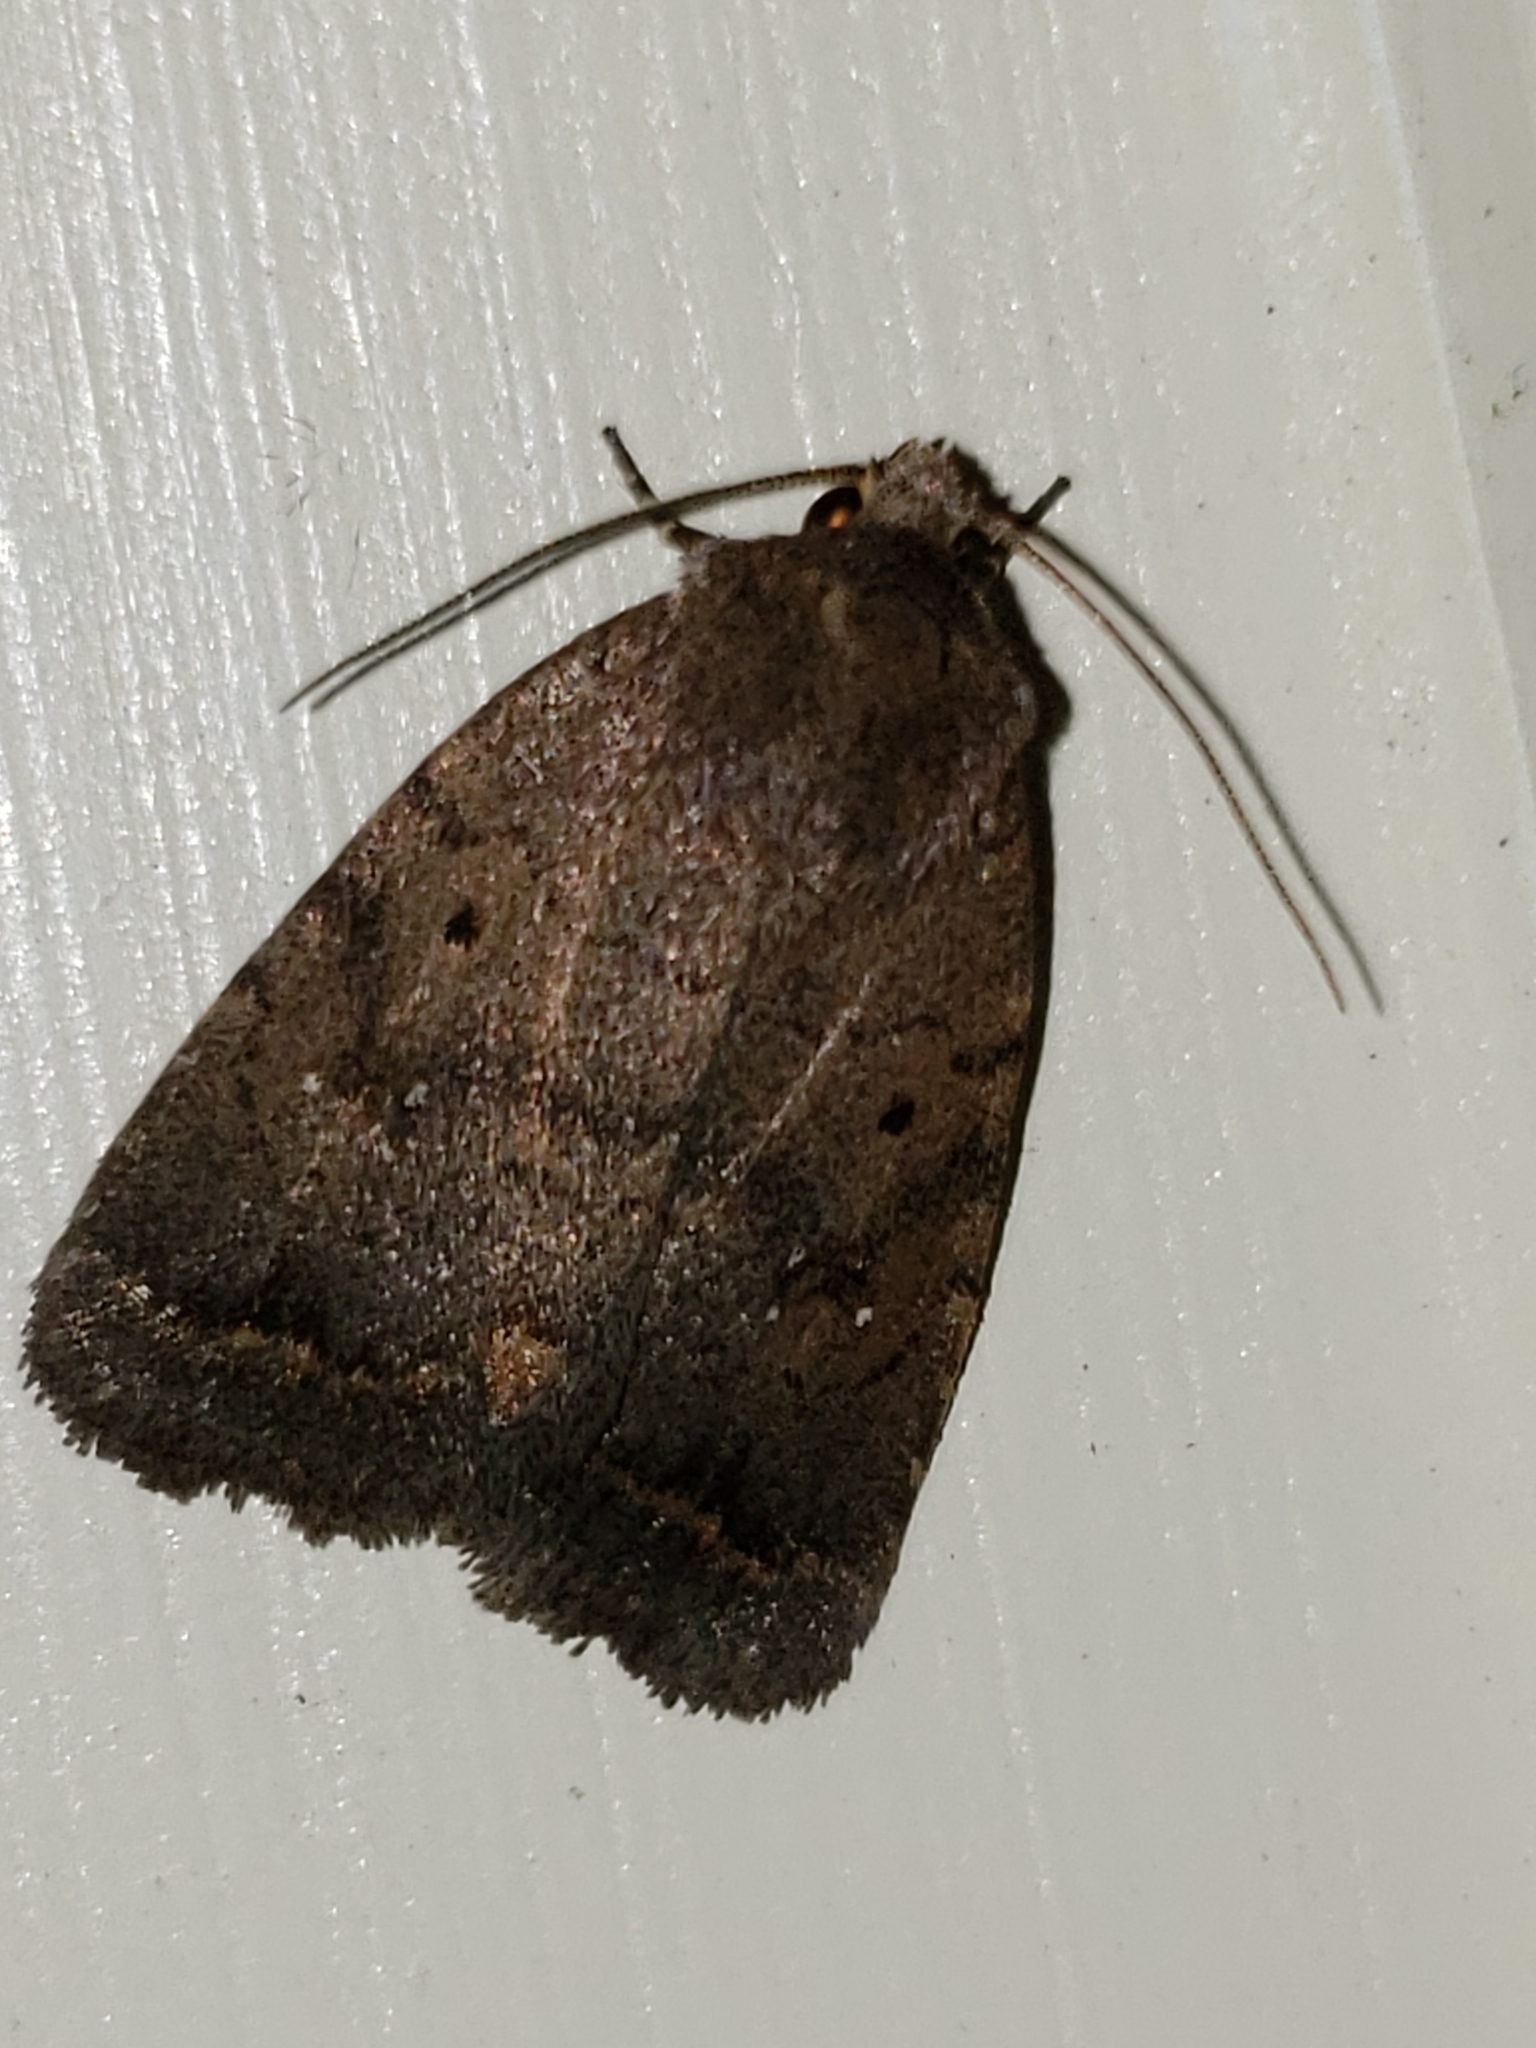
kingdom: Animalia
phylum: Arthropoda
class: Insecta
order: Lepidoptera
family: Noctuidae
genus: Athetis
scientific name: Athetis tarda
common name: Slowpoke moth
